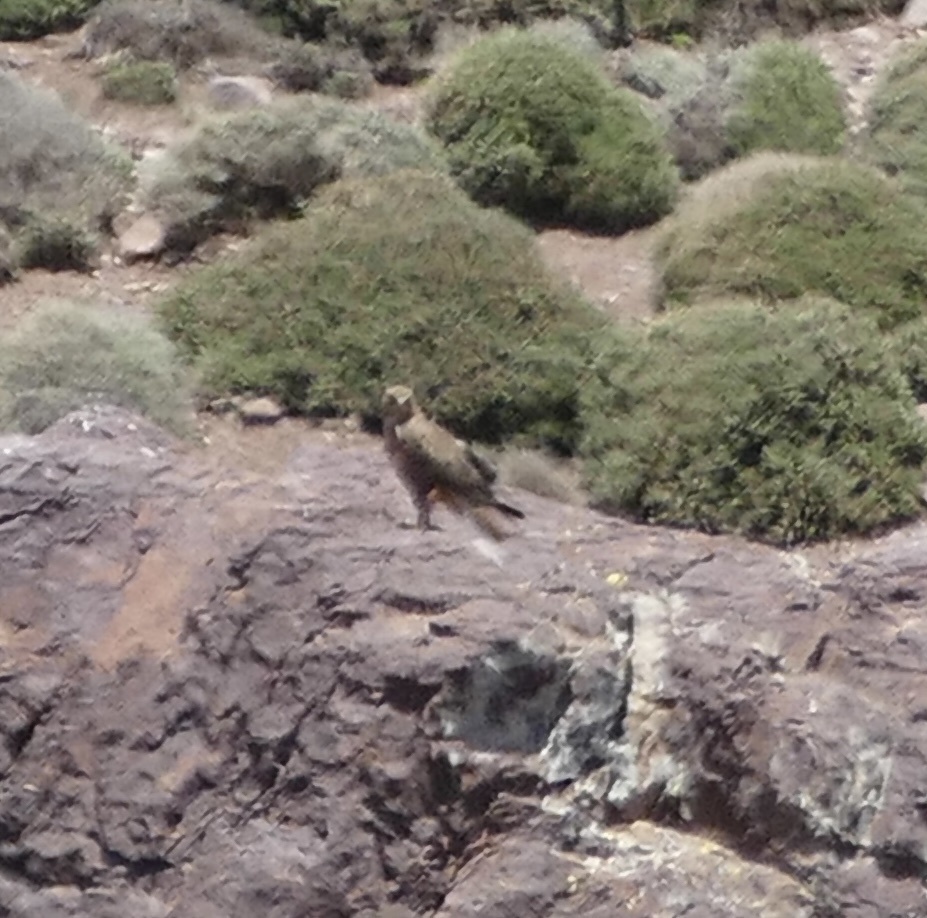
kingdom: Animalia
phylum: Chordata
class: Aves
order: Accipitriformes
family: Accipitridae
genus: Buteo
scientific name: Buteo rufinus
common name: Long-legged buzzard
